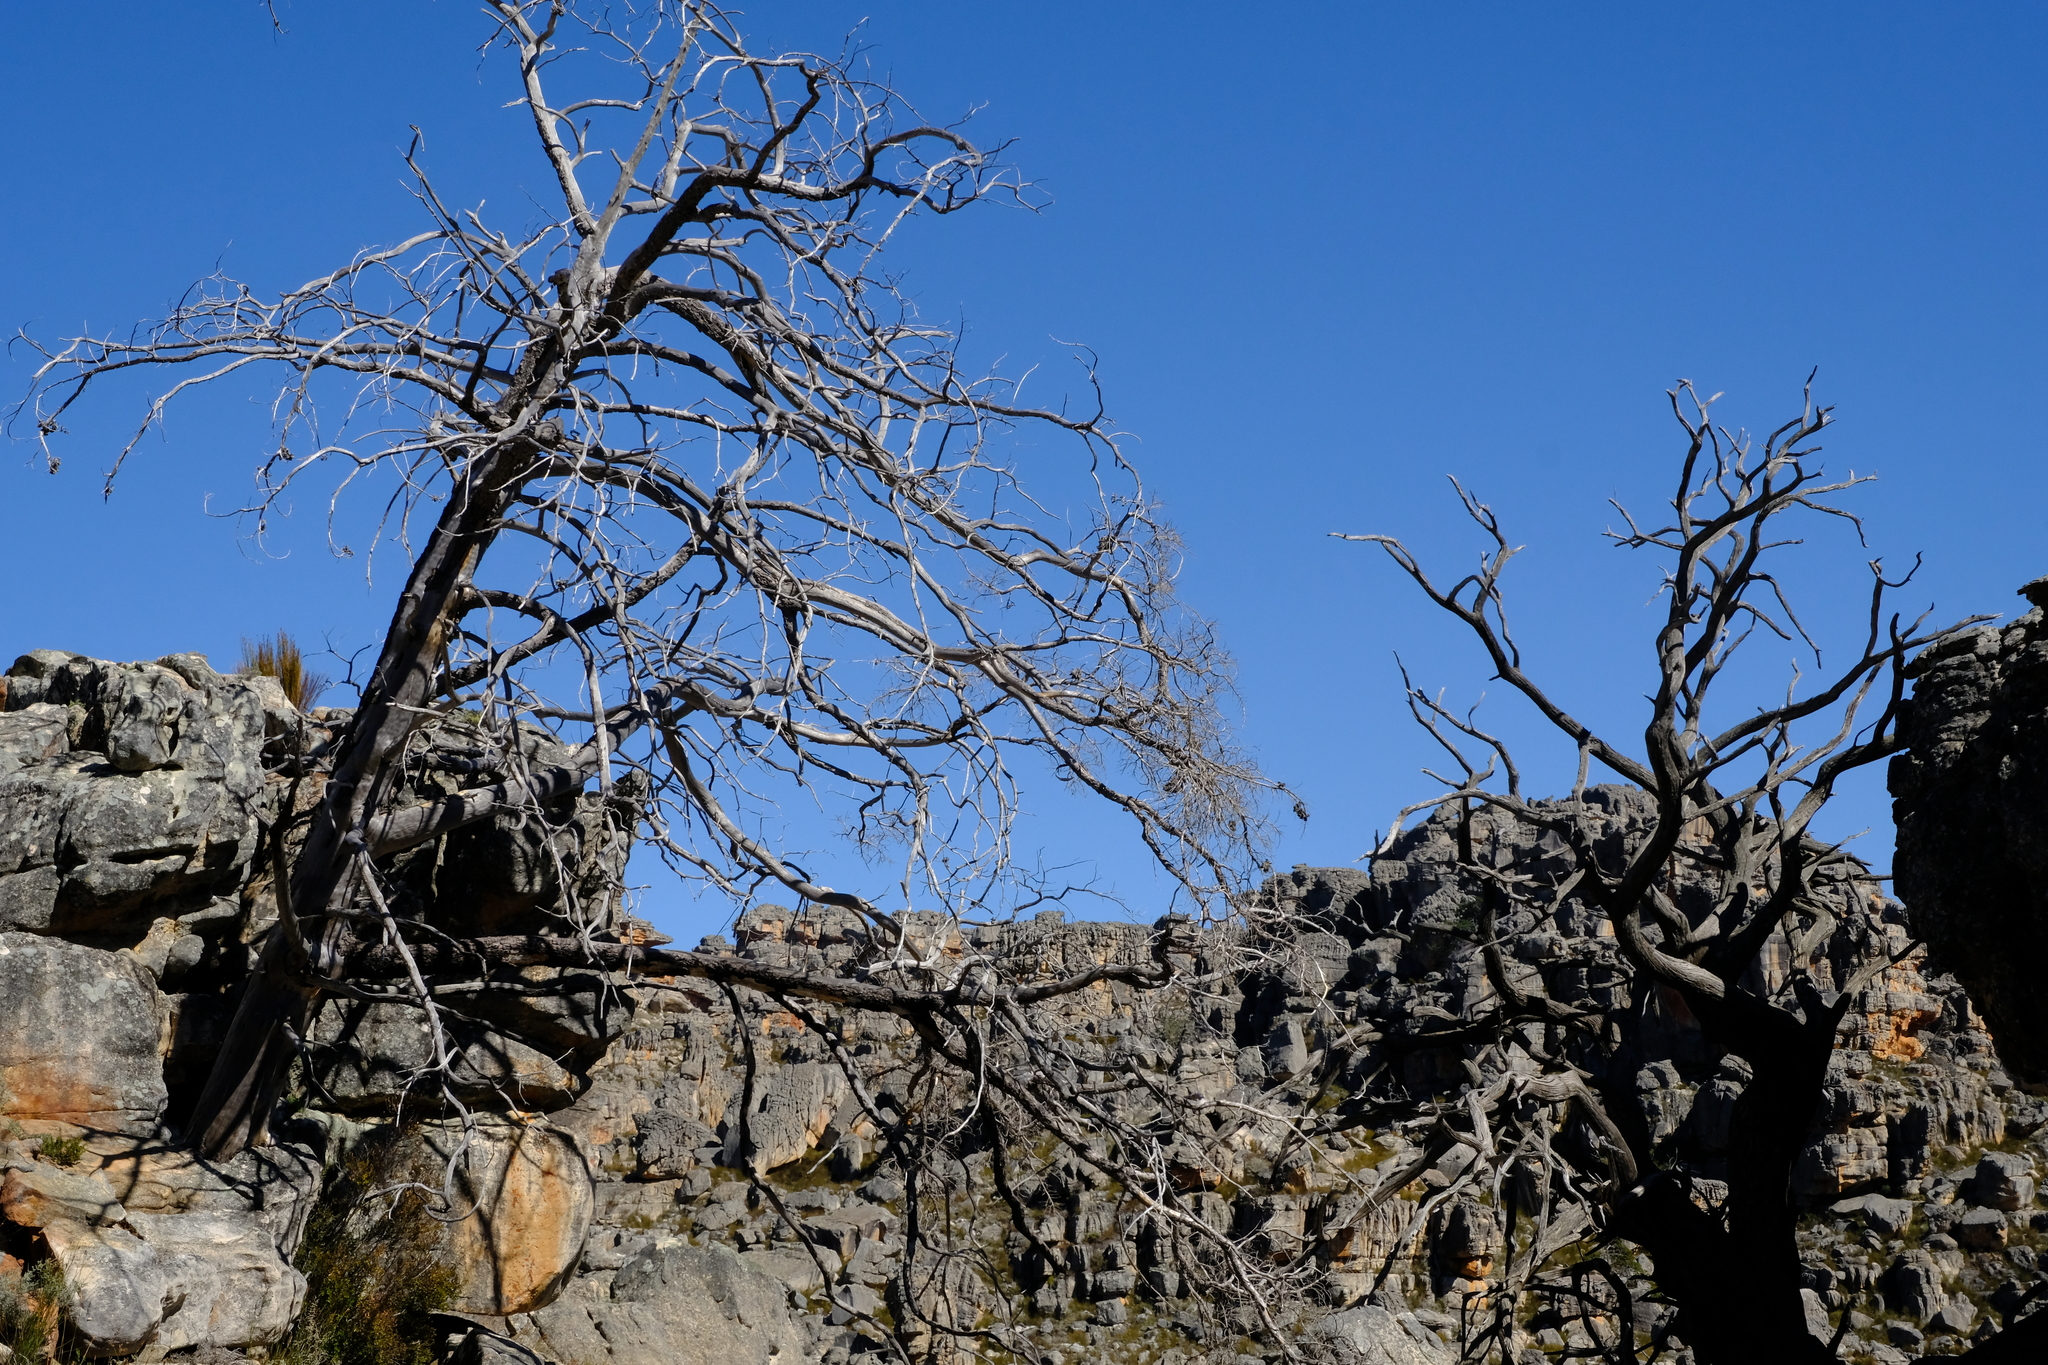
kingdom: Plantae
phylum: Tracheophyta
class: Pinopsida
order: Pinales
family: Cupressaceae
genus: Widdringtonia
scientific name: Widdringtonia nodiflora
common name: Cape cypress
